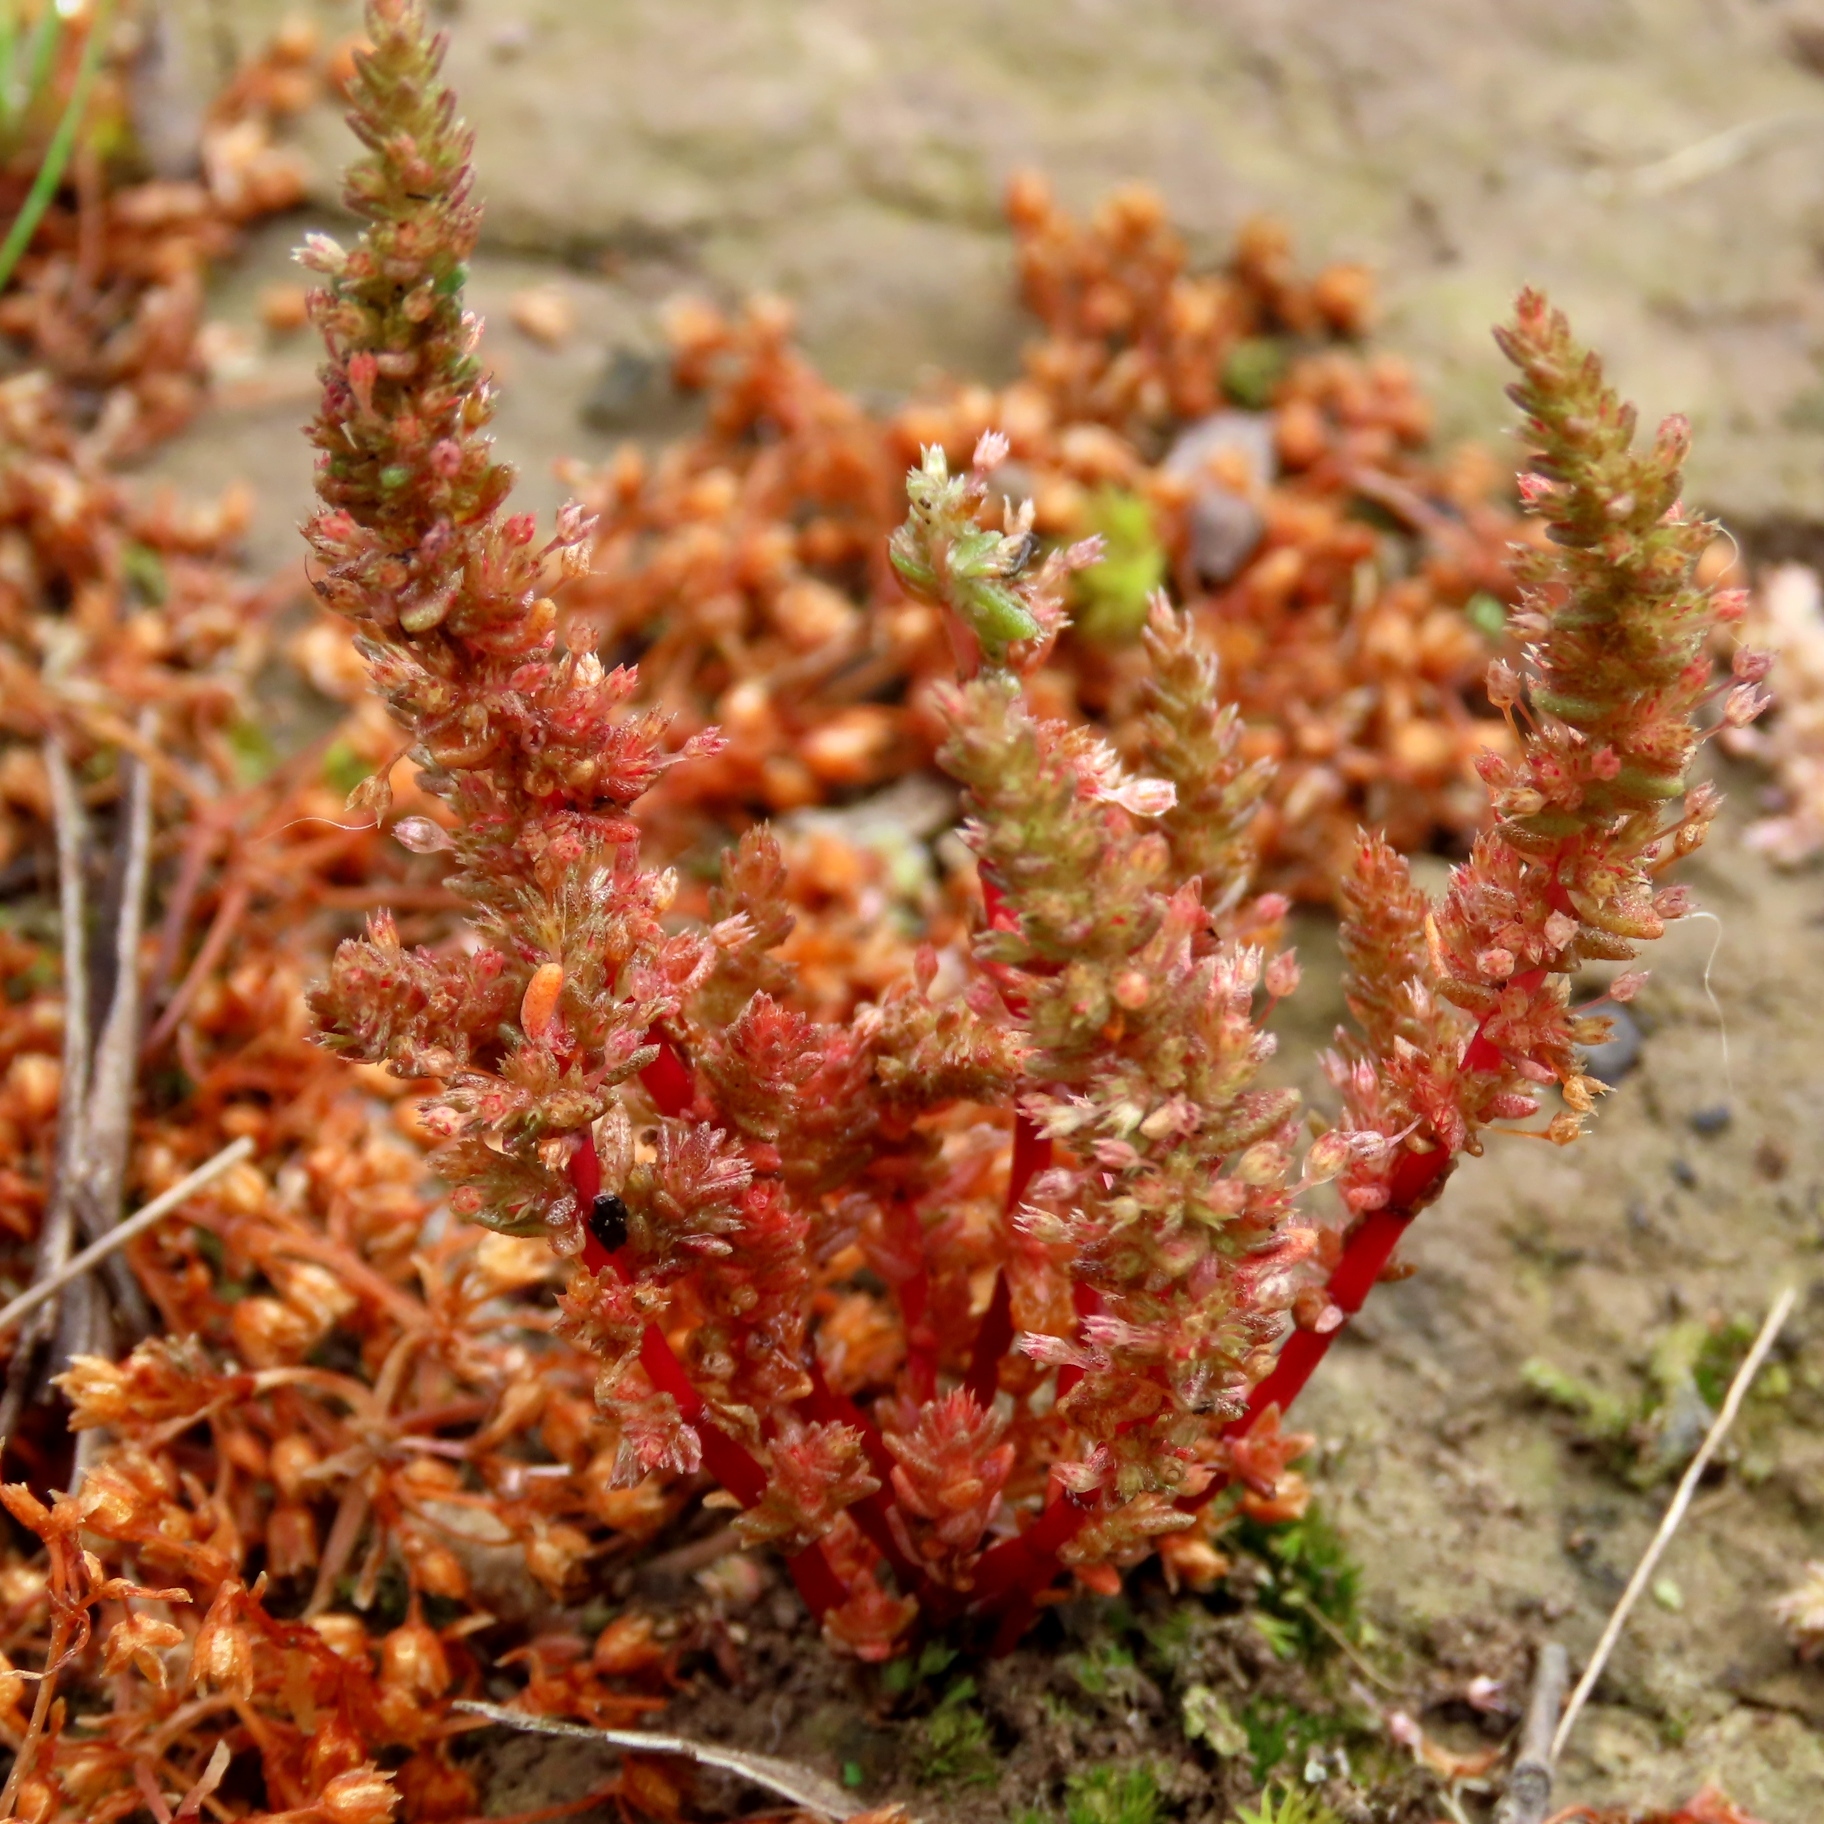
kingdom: Plantae
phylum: Tracheophyta
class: Magnoliopsida
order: Saxifragales
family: Crassulaceae
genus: Crassula
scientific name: Crassula sieberiana
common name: Siberian pygmyweed
